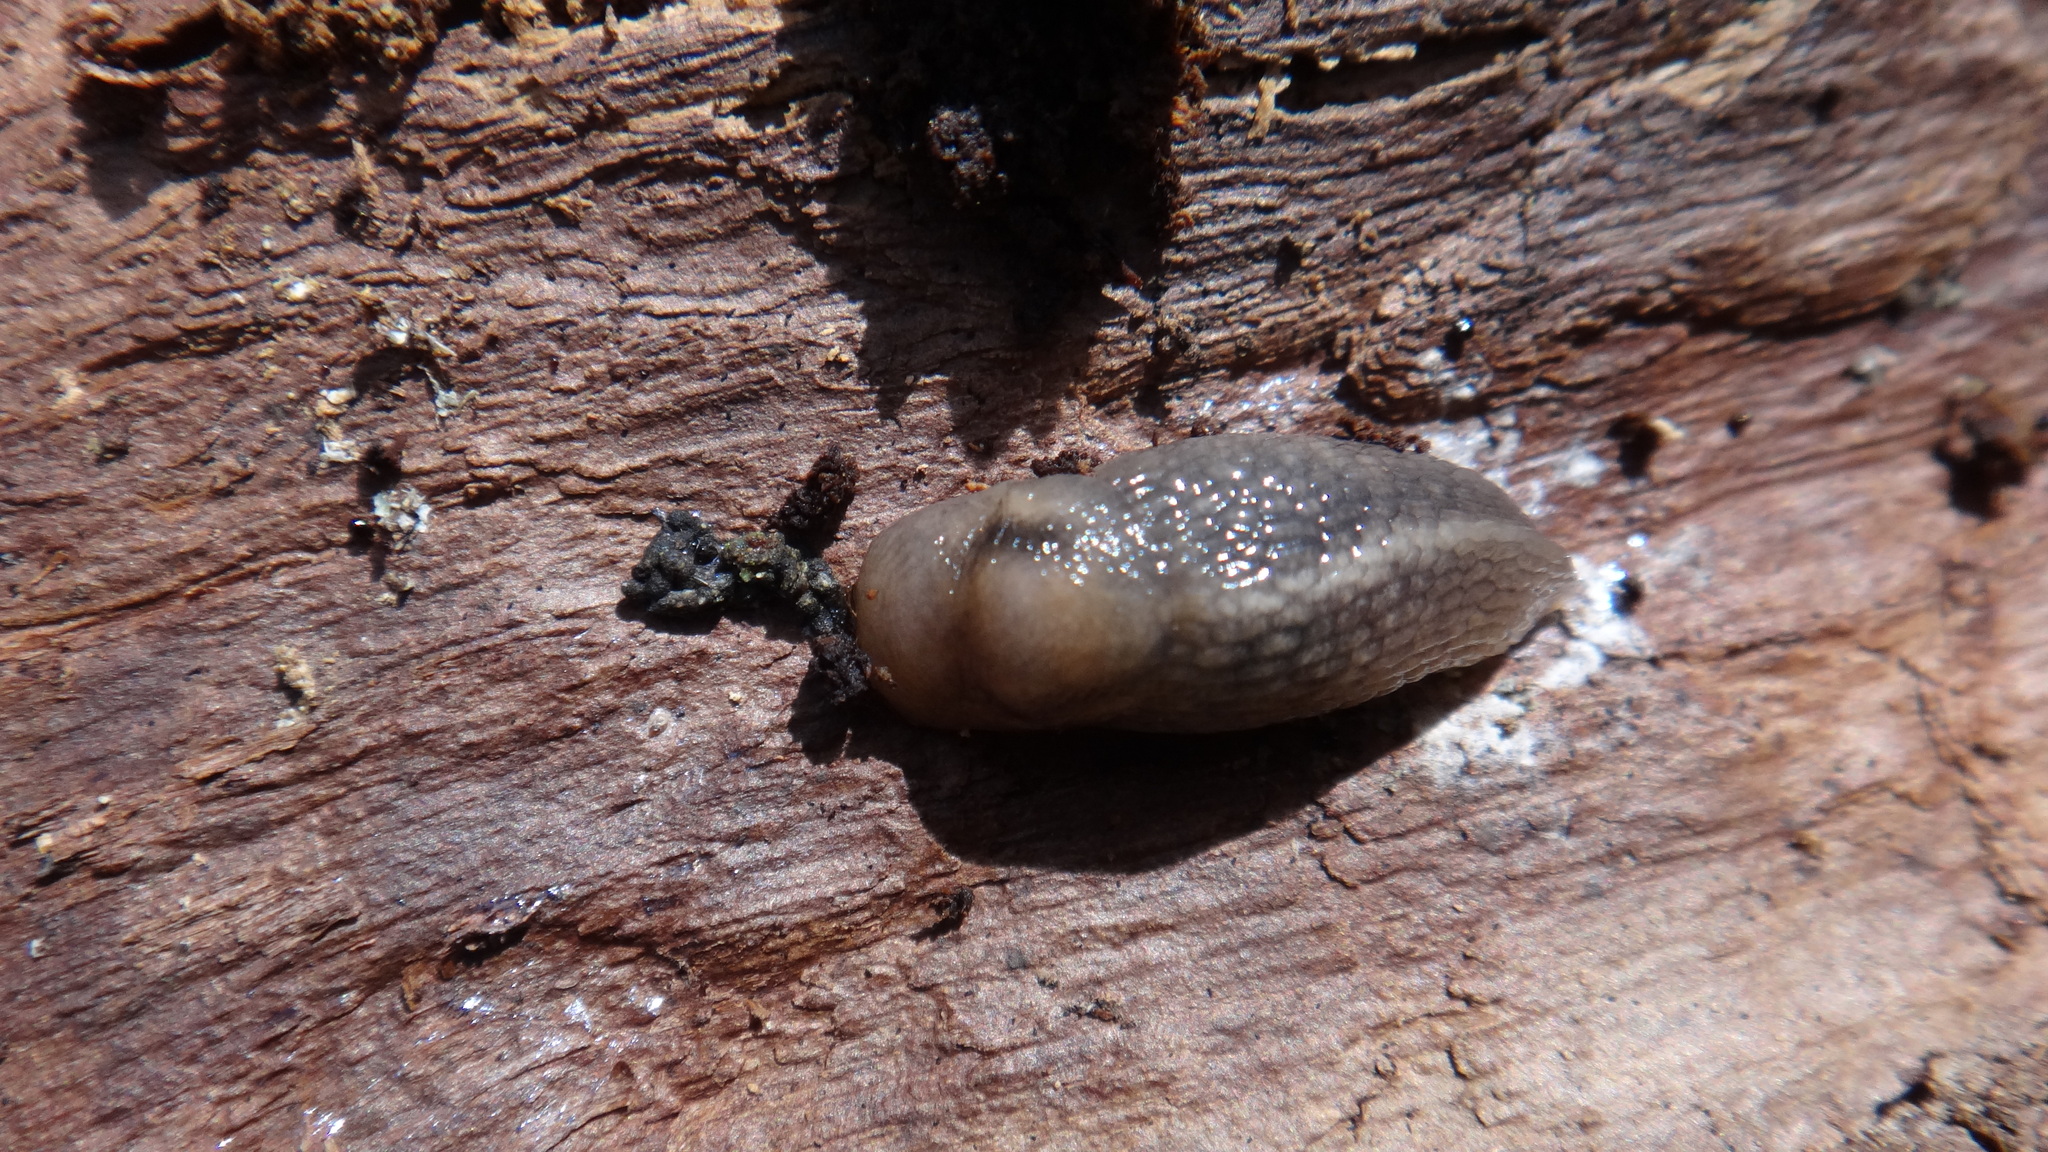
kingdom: Animalia
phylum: Mollusca
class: Gastropoda
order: Stylommatophora
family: Limacidae
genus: Lehmannia
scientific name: Lehmannia marginata
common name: Tree slug
